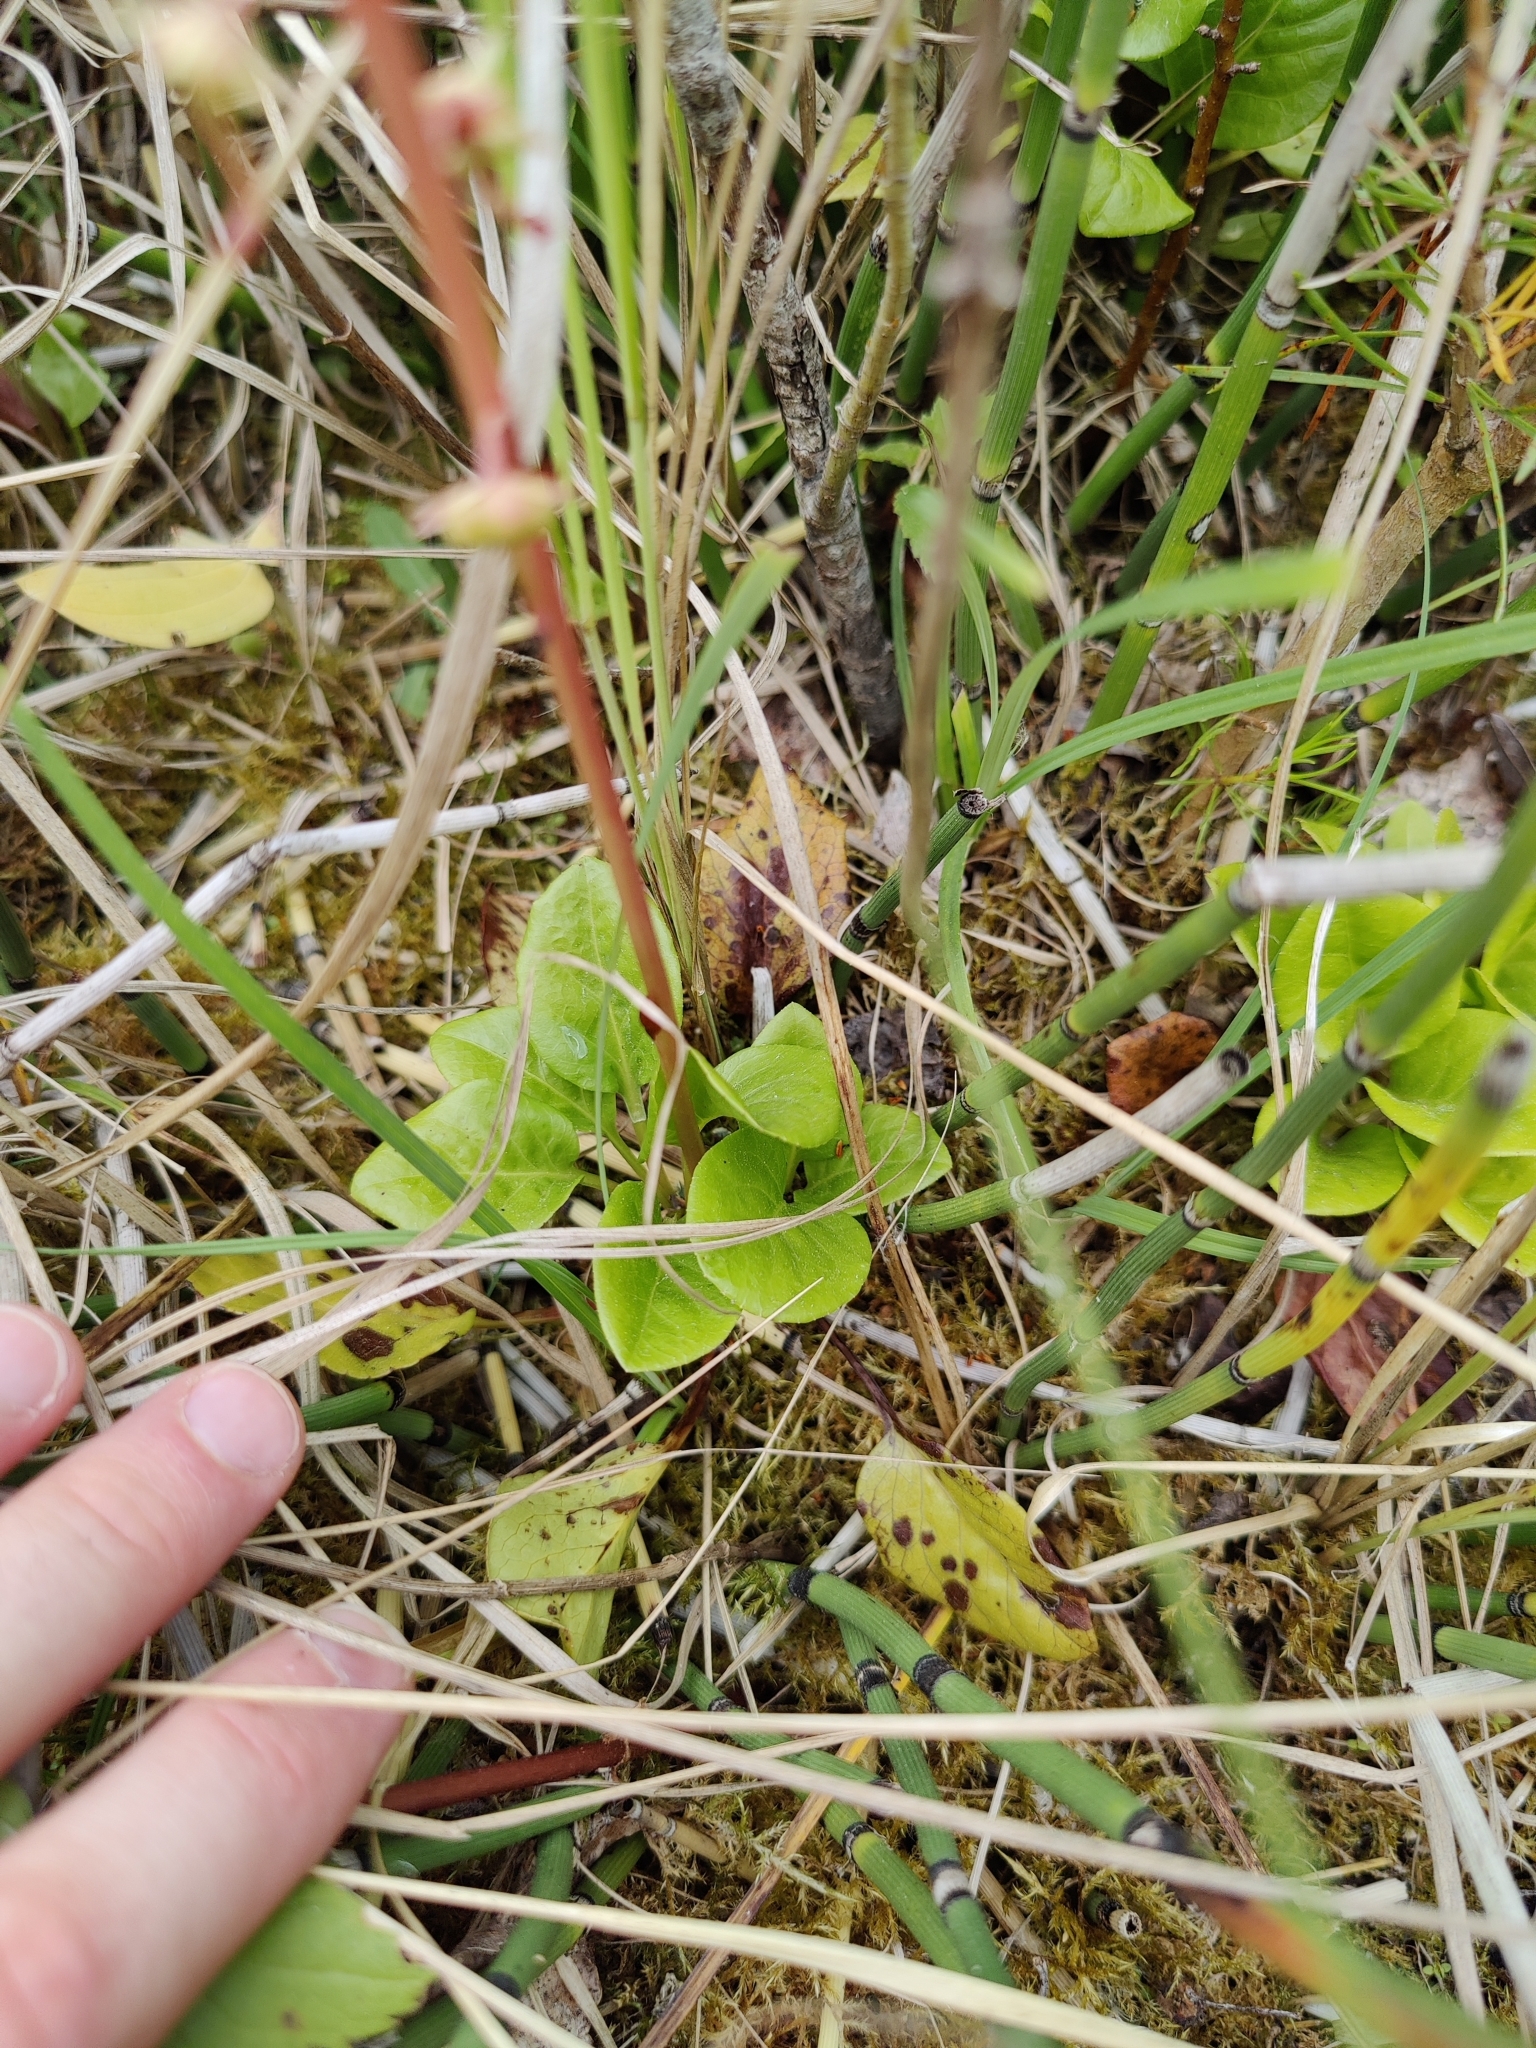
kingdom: Plantae
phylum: Tracheophyta
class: Magnoliopsida
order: Ericales
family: Ericaceae
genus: Pyrola
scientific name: Pyrola rotundifolia
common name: Round-leaved wintergreen
